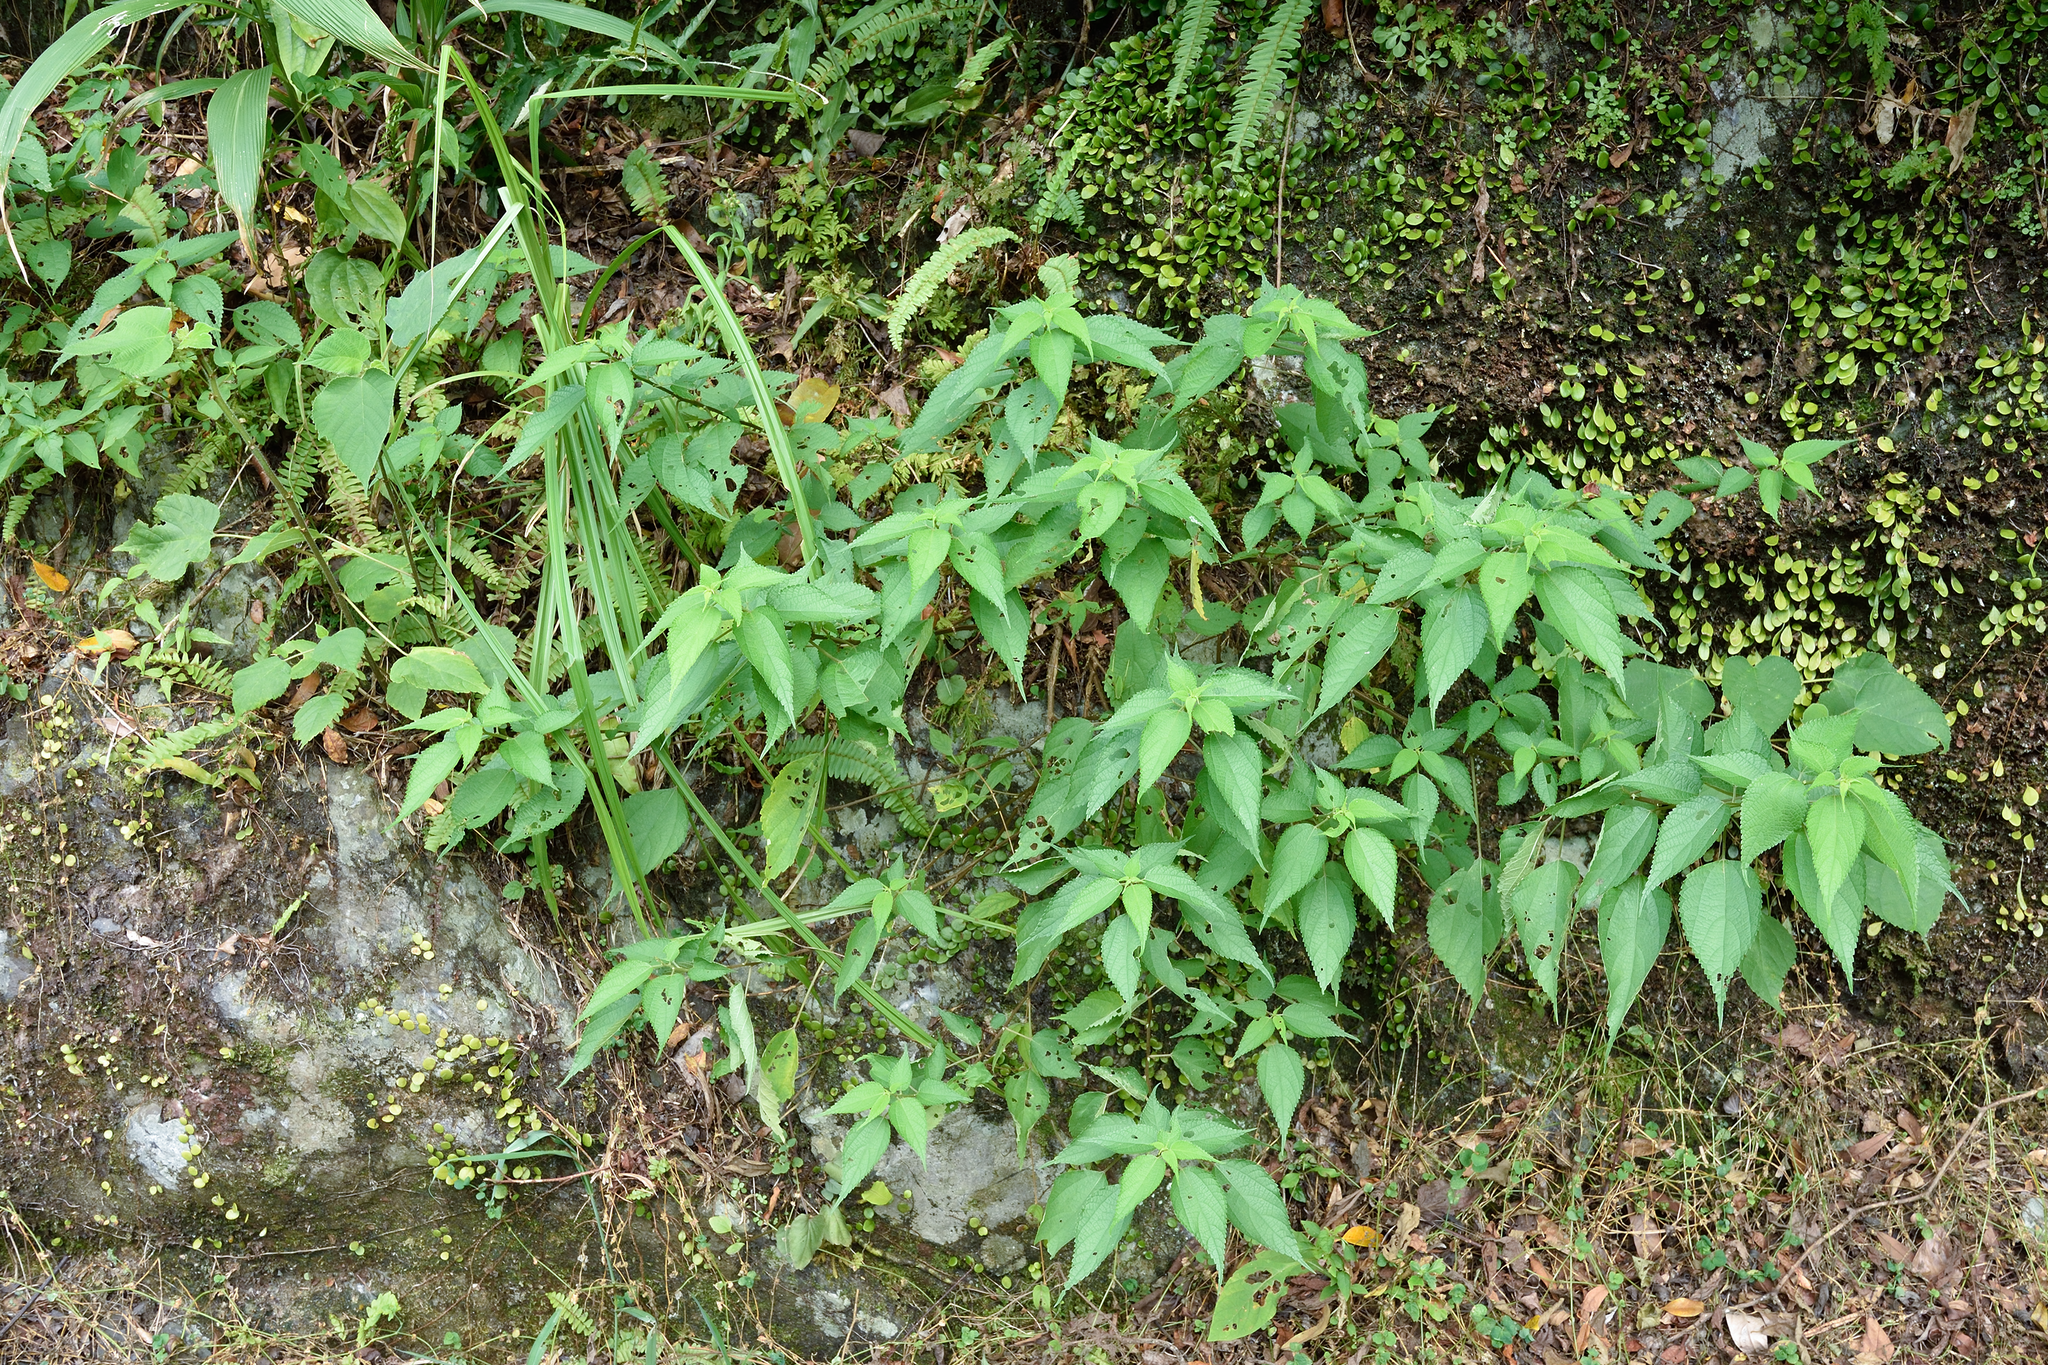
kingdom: Plantae
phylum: Tracheophyta
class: Magnoliopsida
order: Rosales
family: Urticaceae
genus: Boehmeria
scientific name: Boehmeria nivea
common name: Ramie chinese grass
